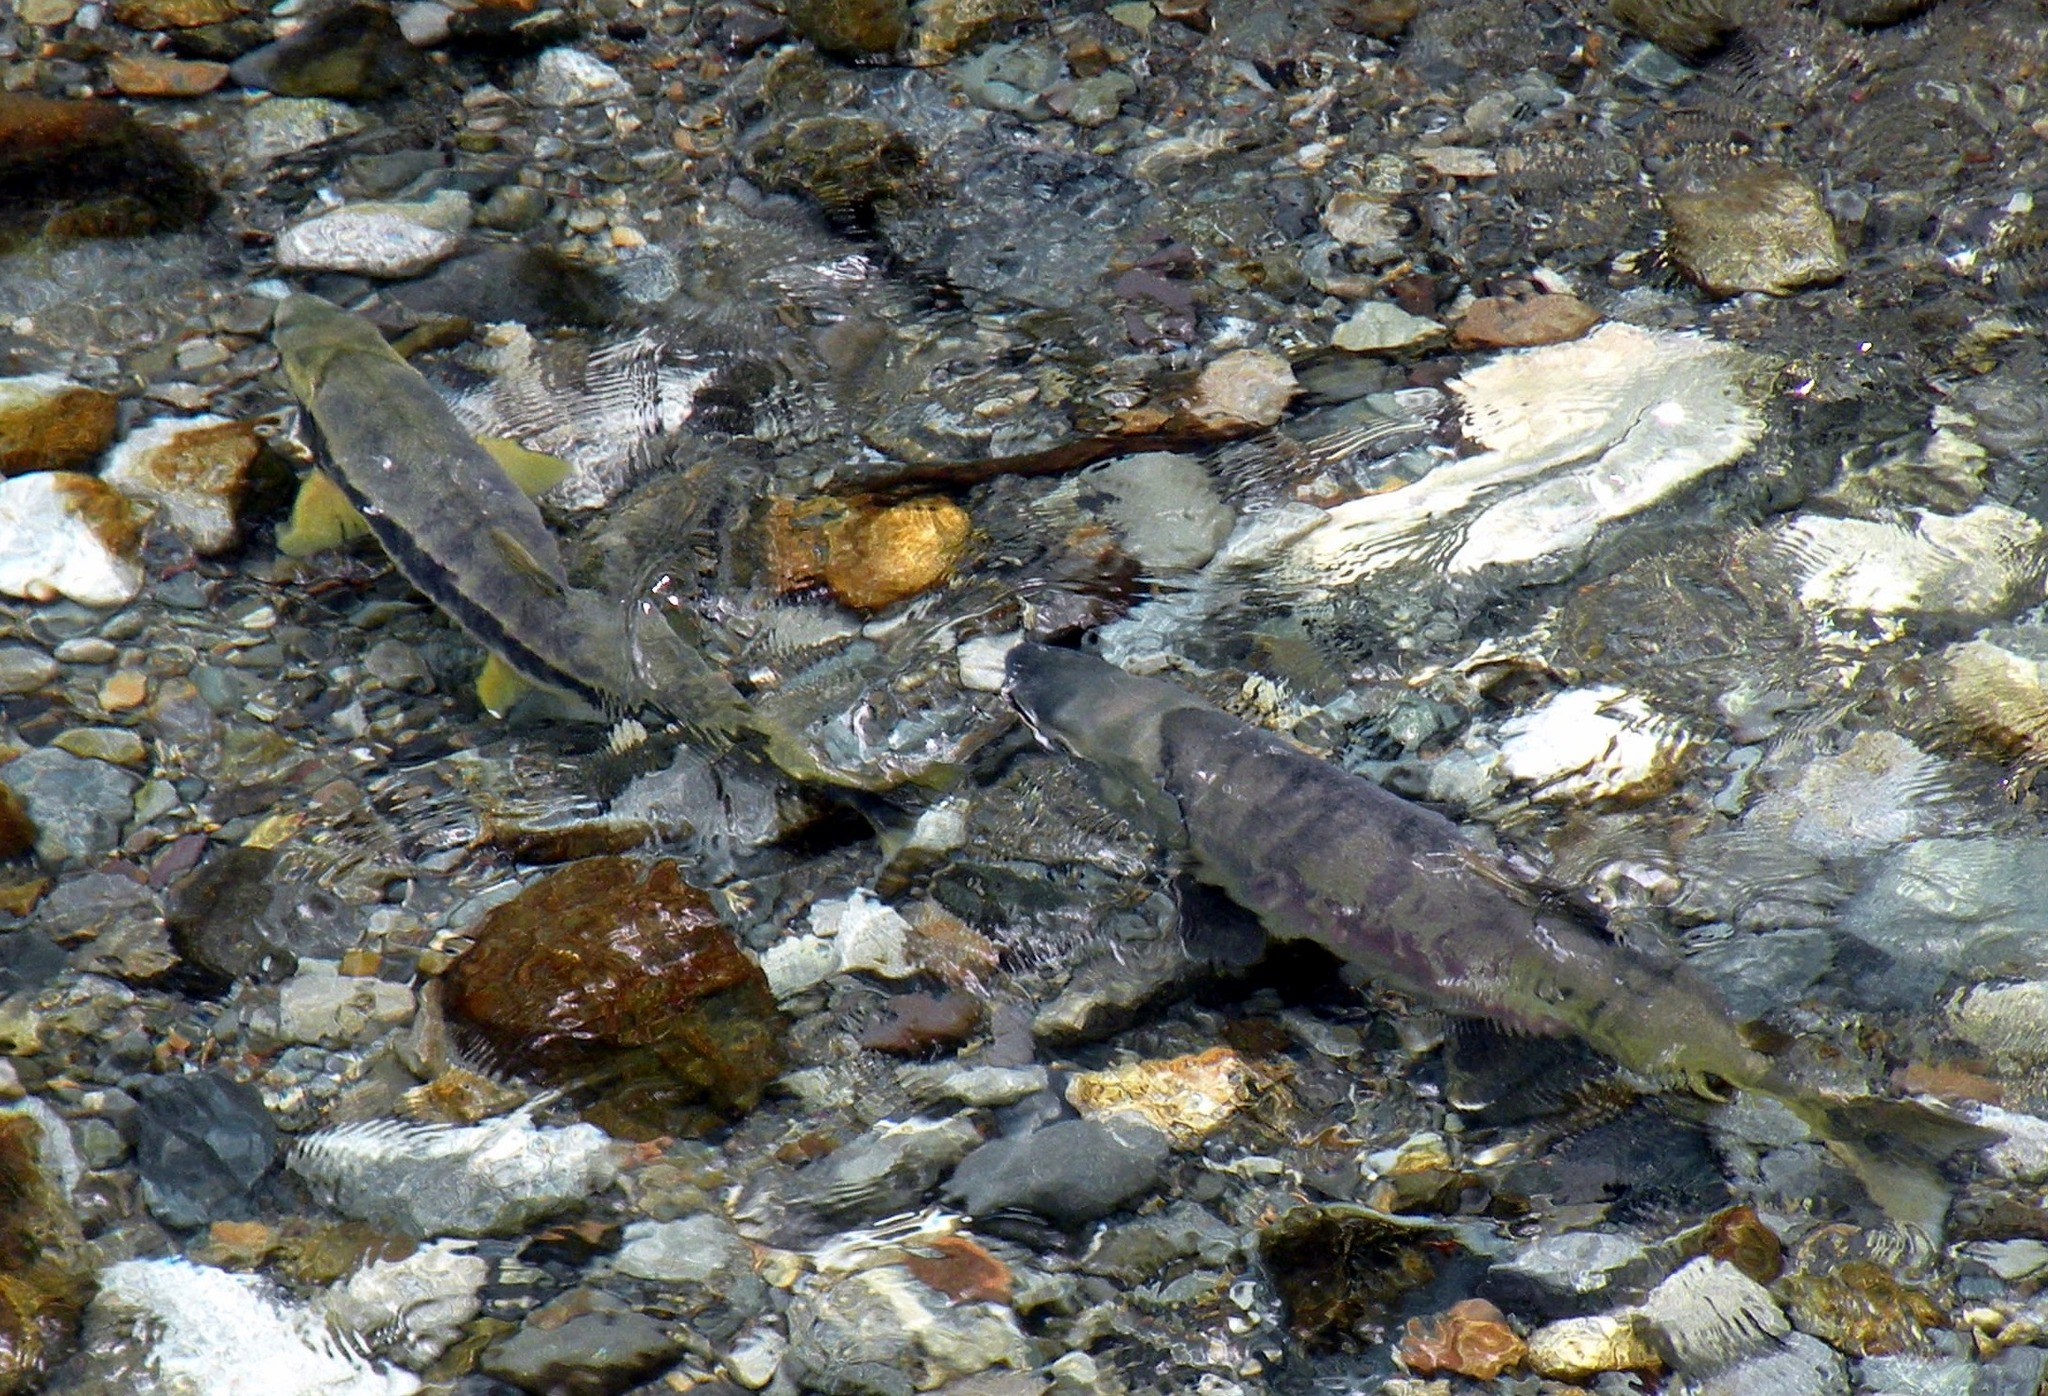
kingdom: Animalia
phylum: Chordata
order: Salmoniformes
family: Salmonidae
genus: Oncorhynchus
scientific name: Oncorhynchus keta
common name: Chum salmon
